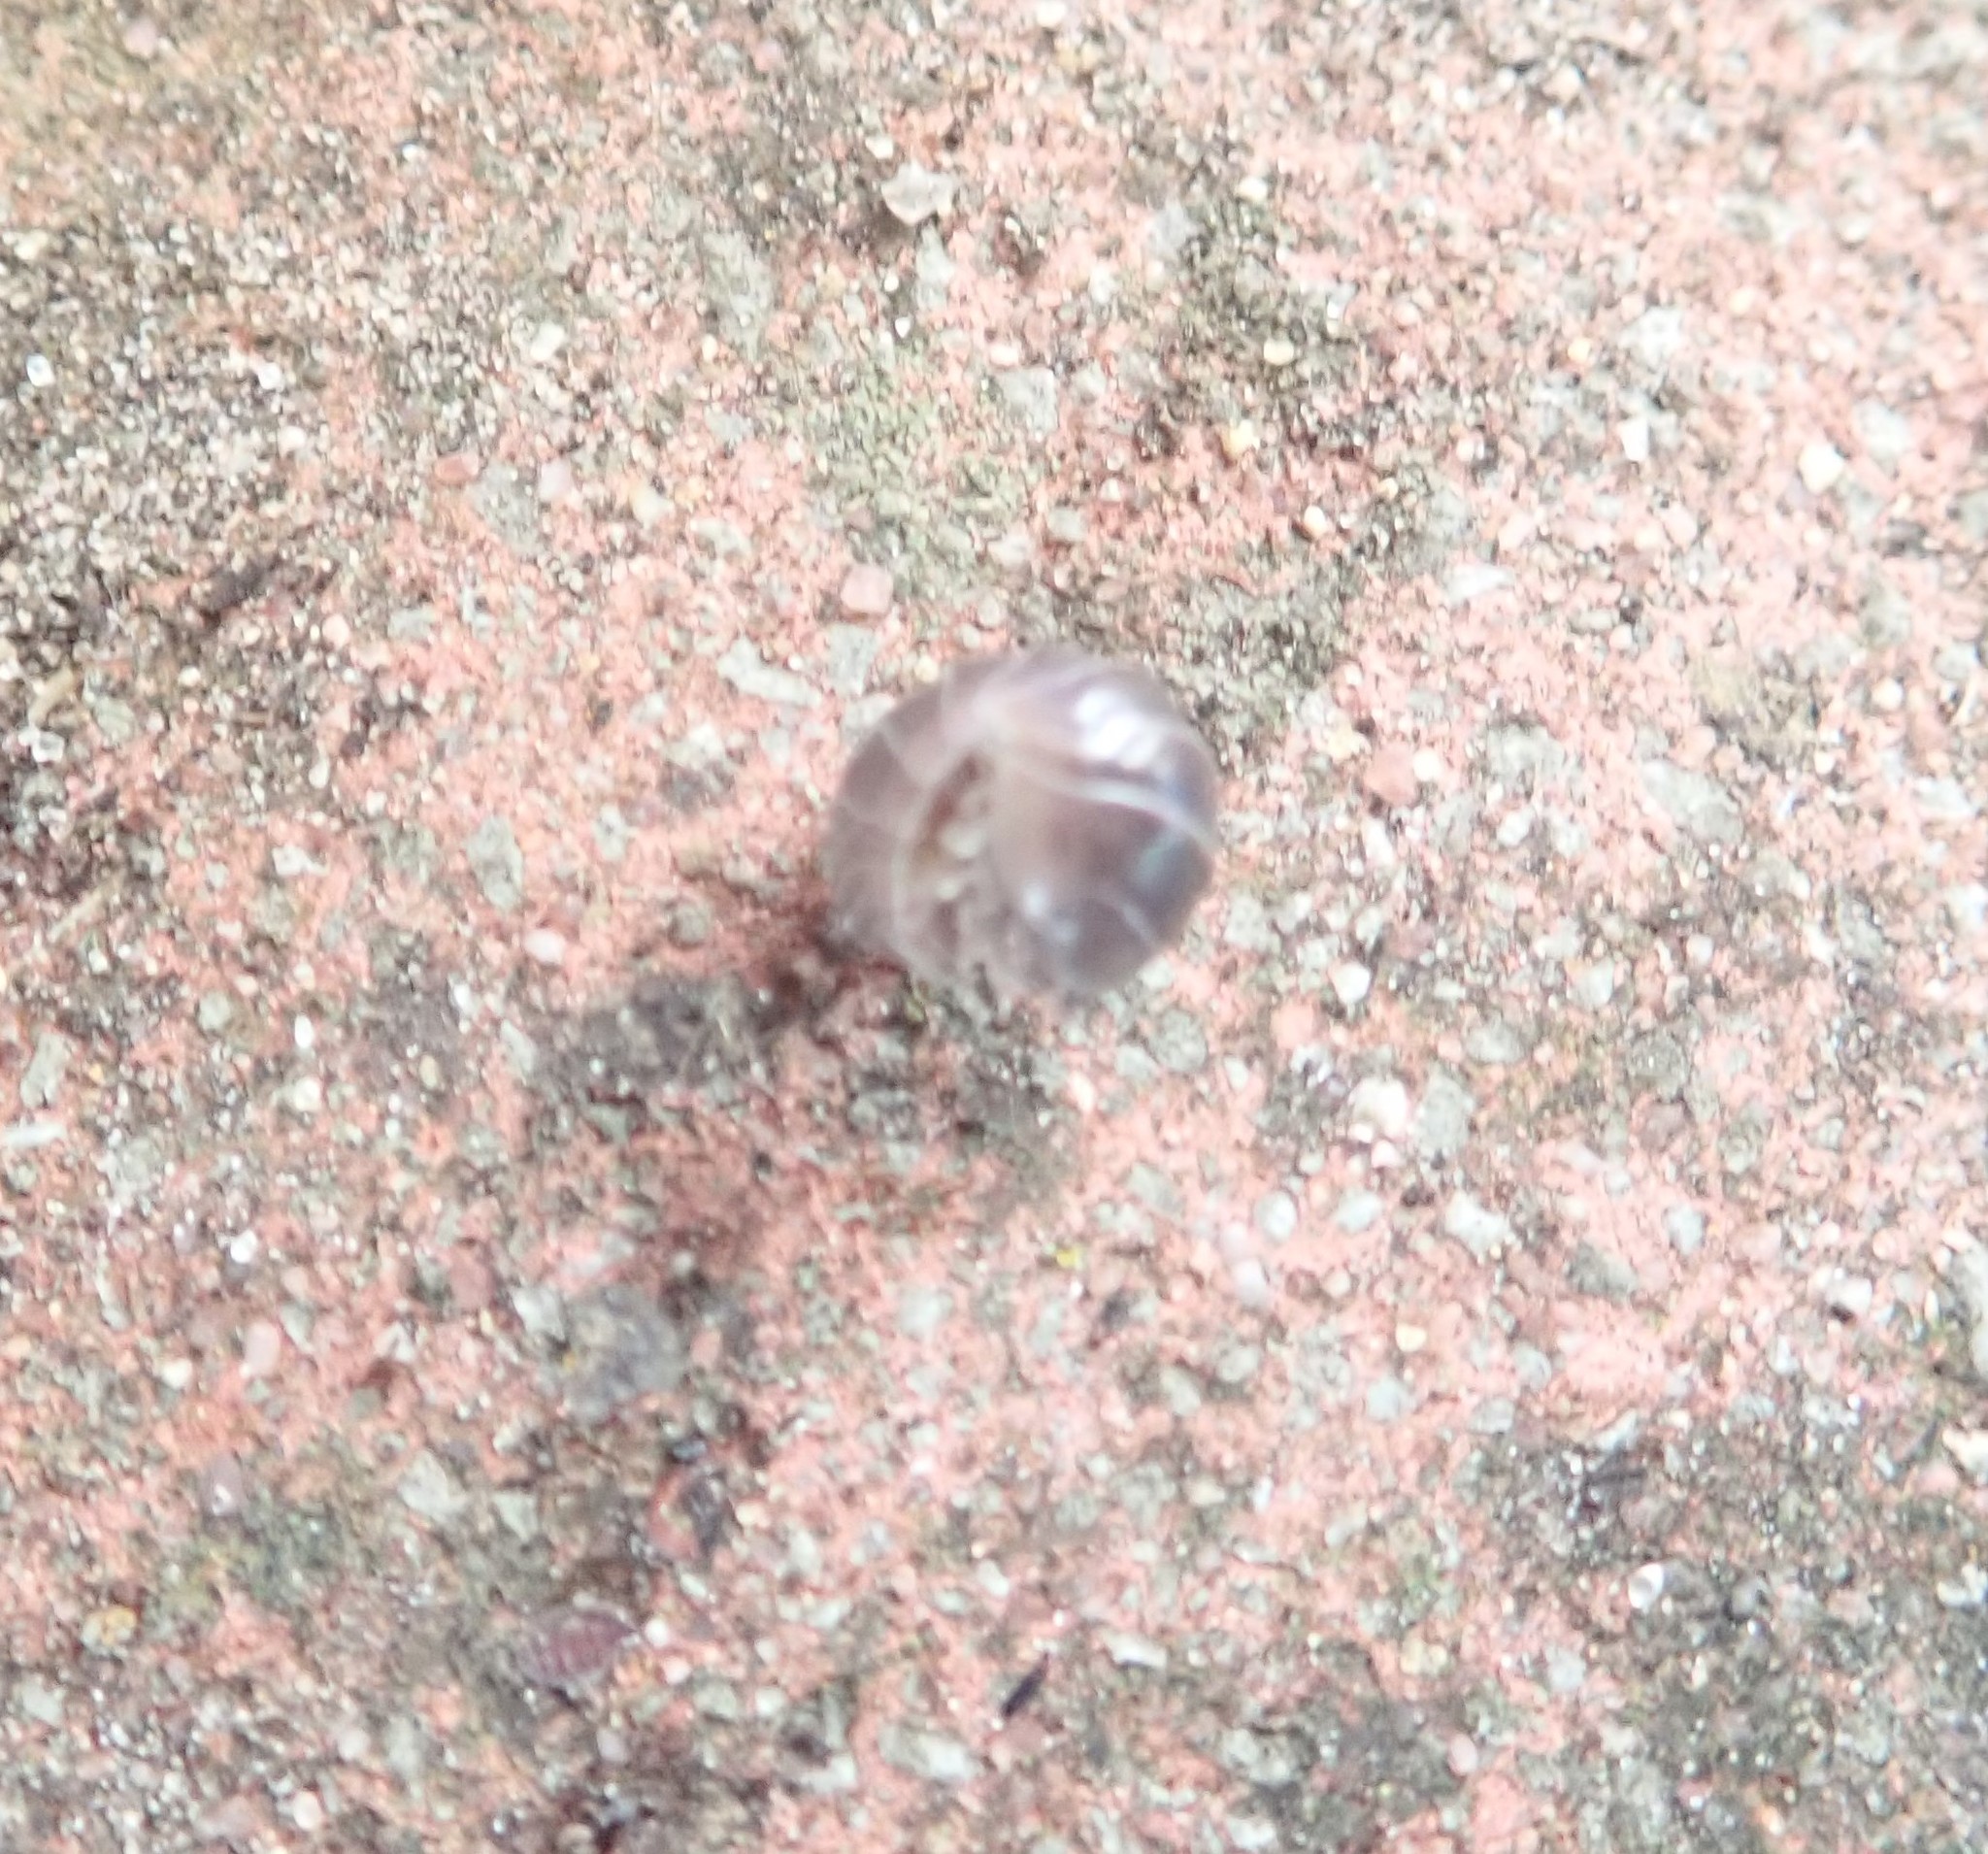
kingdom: Animalia
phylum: Arthropoda
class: Malacostraca
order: Isopoda
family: Armadillidiidae
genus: Armadillidium
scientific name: Armadillidium vulgare
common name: Common pill woodlouse
